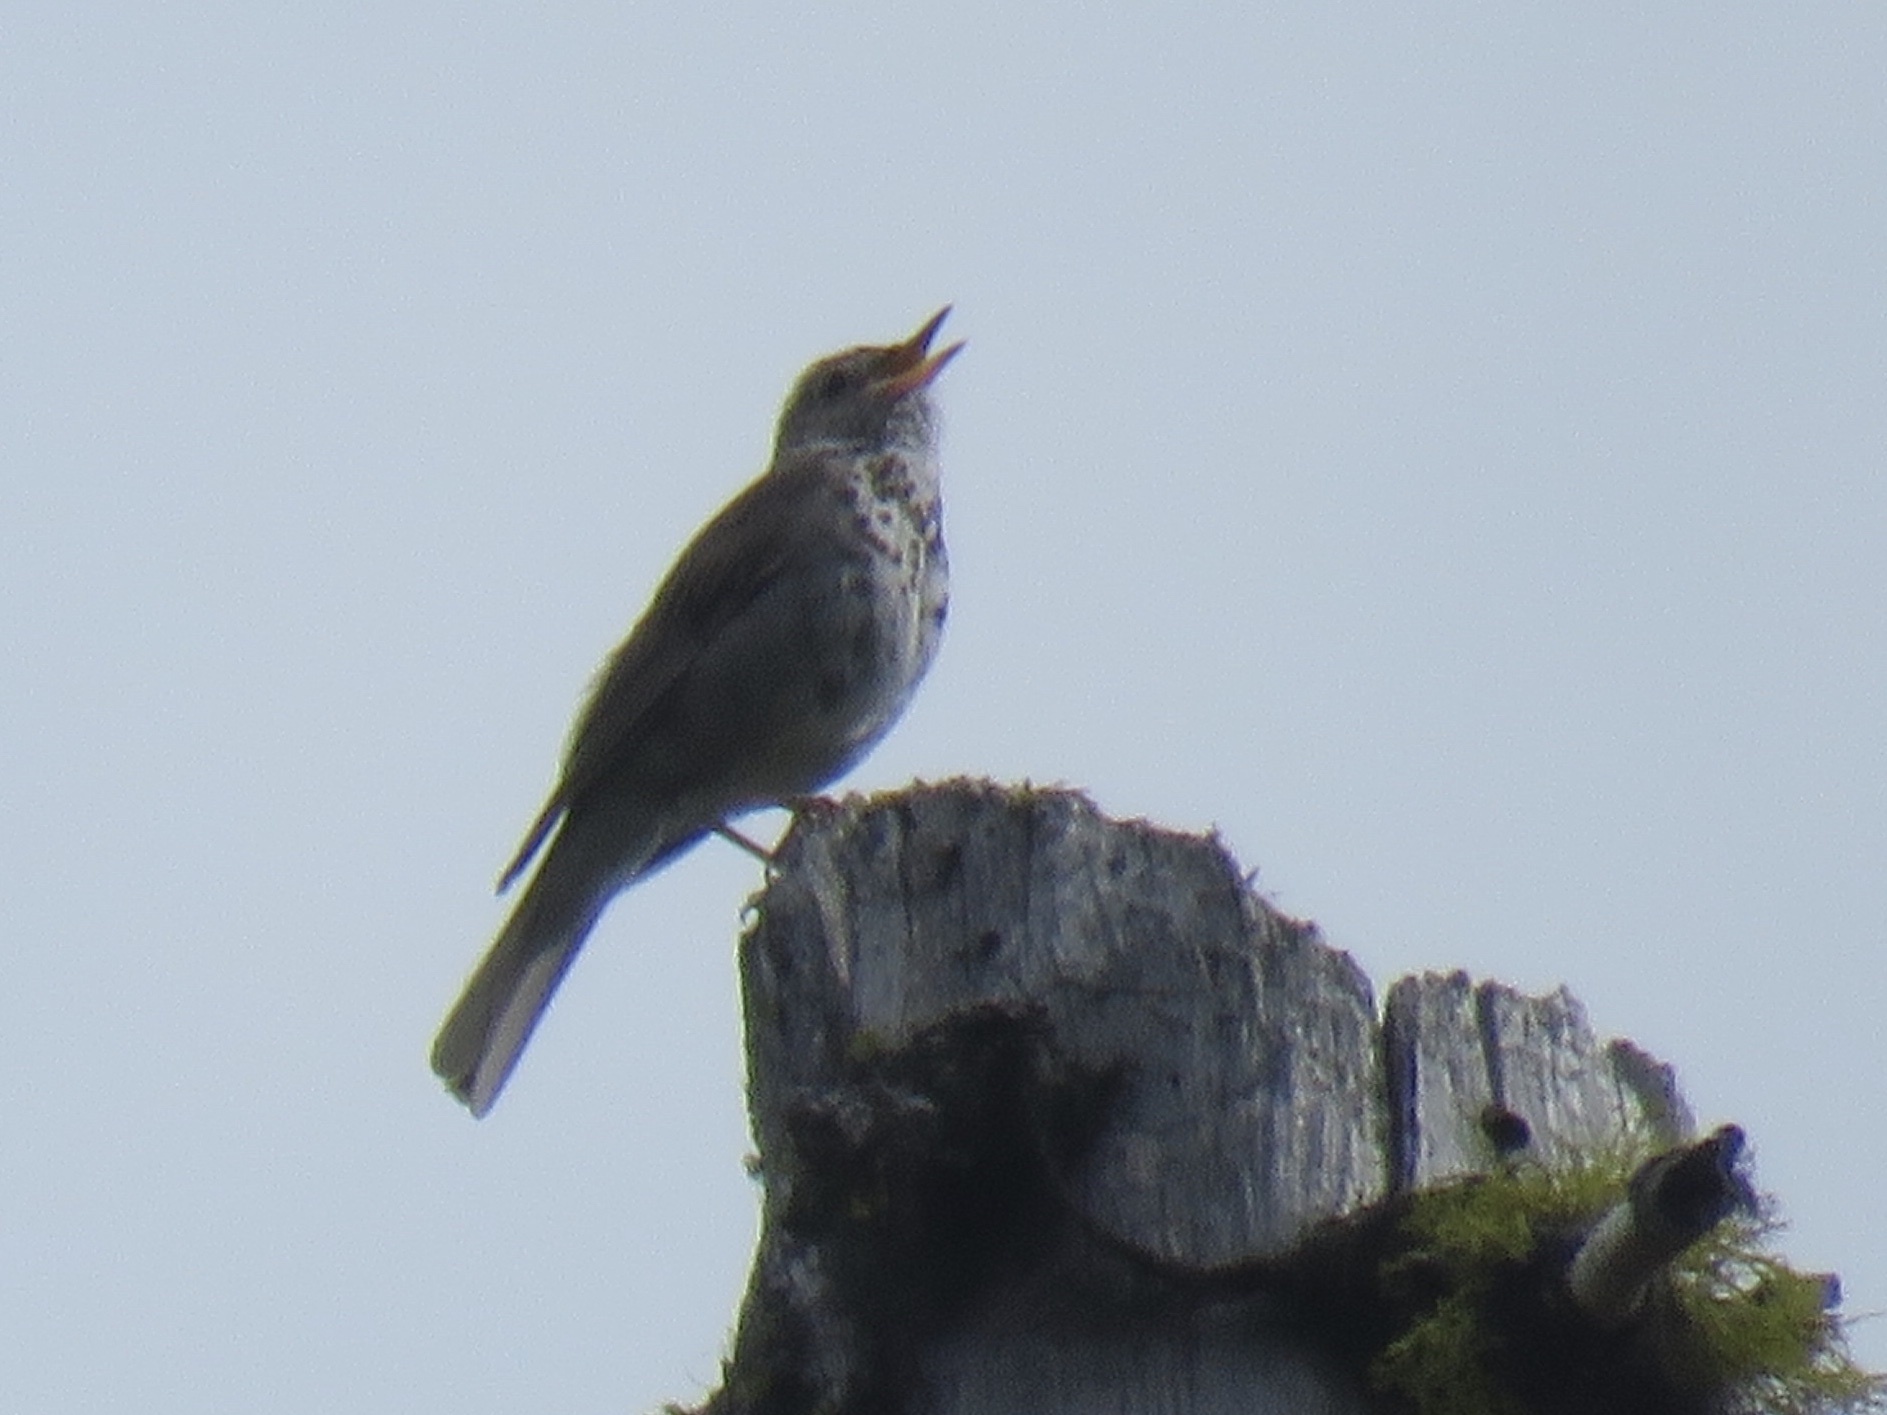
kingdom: Animalia
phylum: Chordata
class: Aves
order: Passeriformes
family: Turdidae
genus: Catharus
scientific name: Catharus ustulatus
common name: Swainson's thrush
